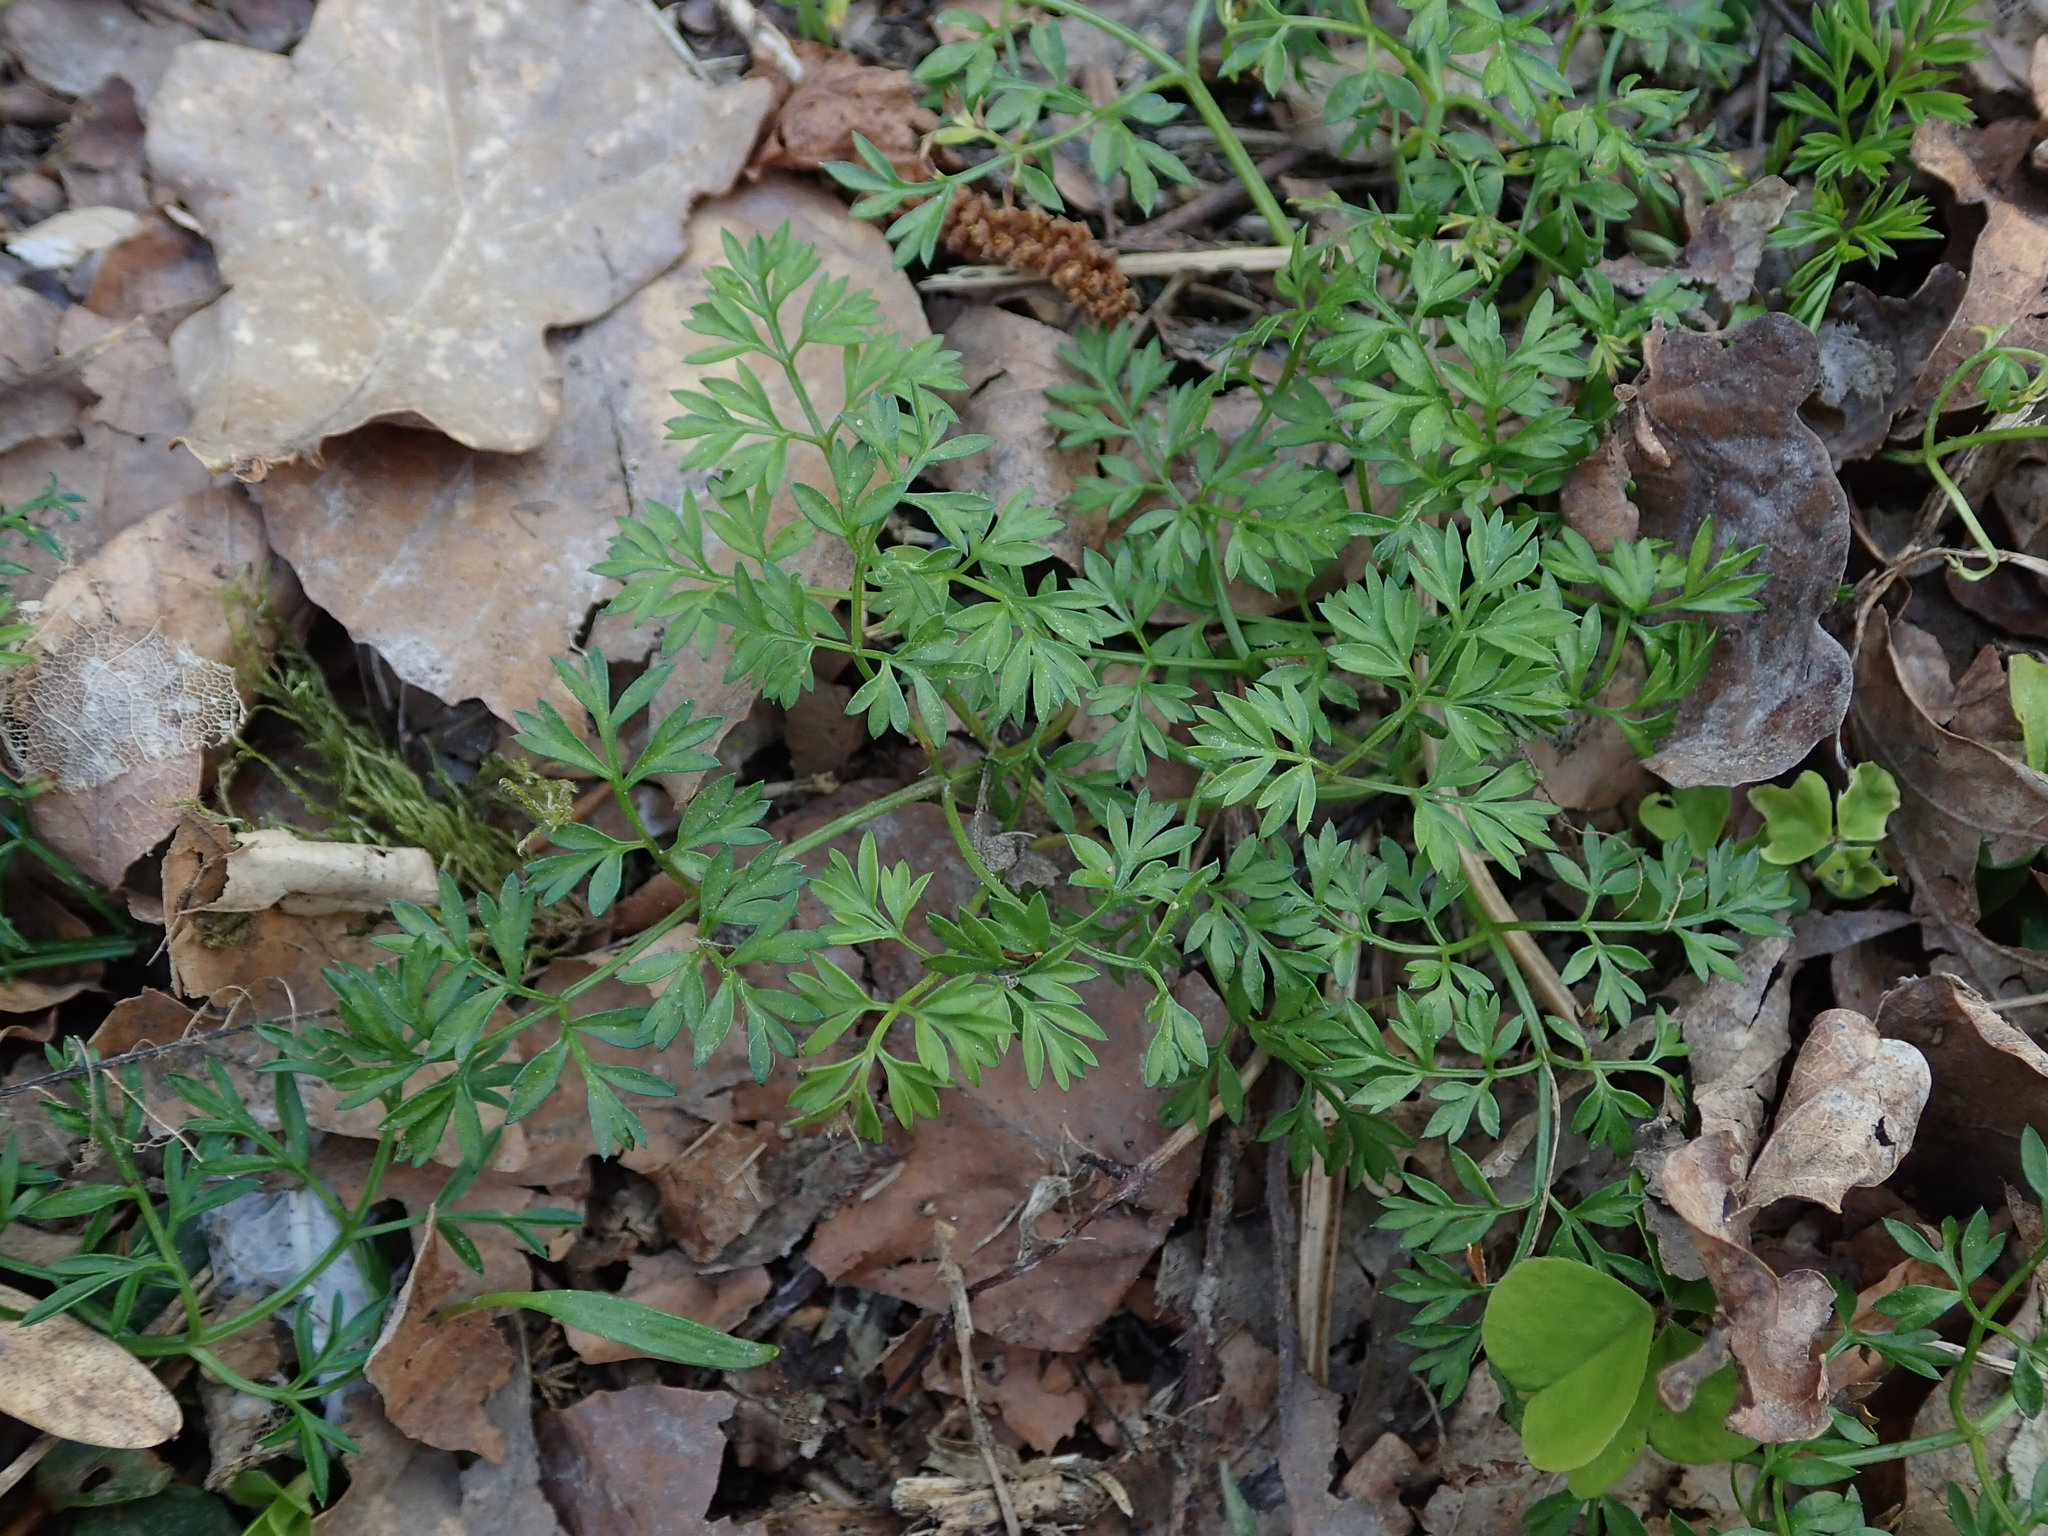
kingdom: Plantae
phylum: Tracheophyta
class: Magnoliopsida
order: Apiales
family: Apiaceae
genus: Conopodium
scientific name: Conopodium majus
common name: Pignut
